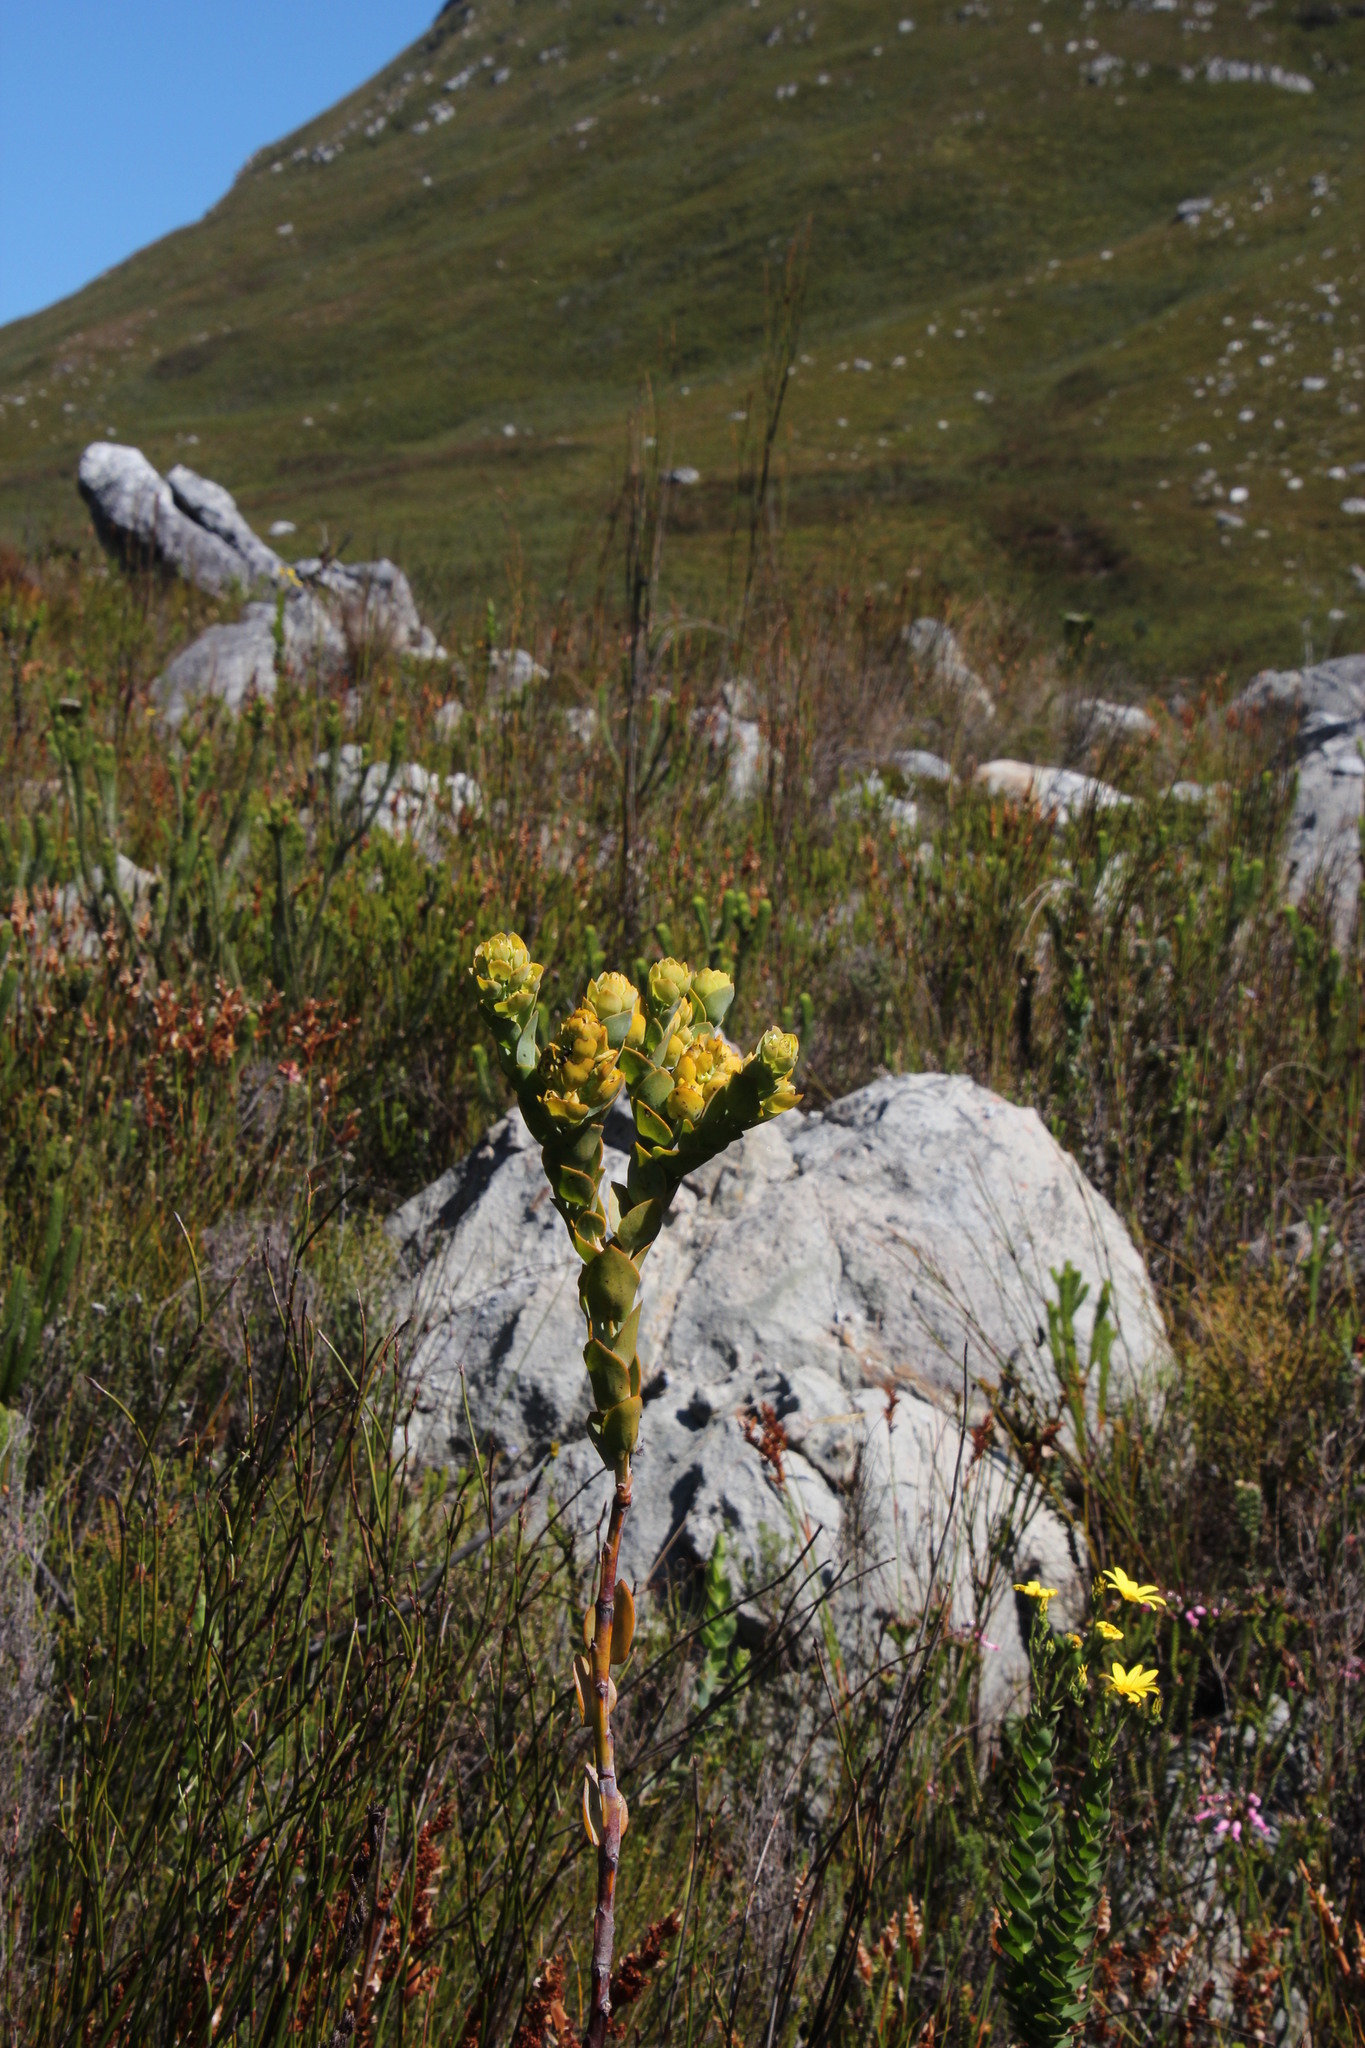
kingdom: Plantae
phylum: Tracheophyta
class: Magnoliopsida
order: Santalales
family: Thesiaceae
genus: Thesium
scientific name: Thesium euphorbioides
